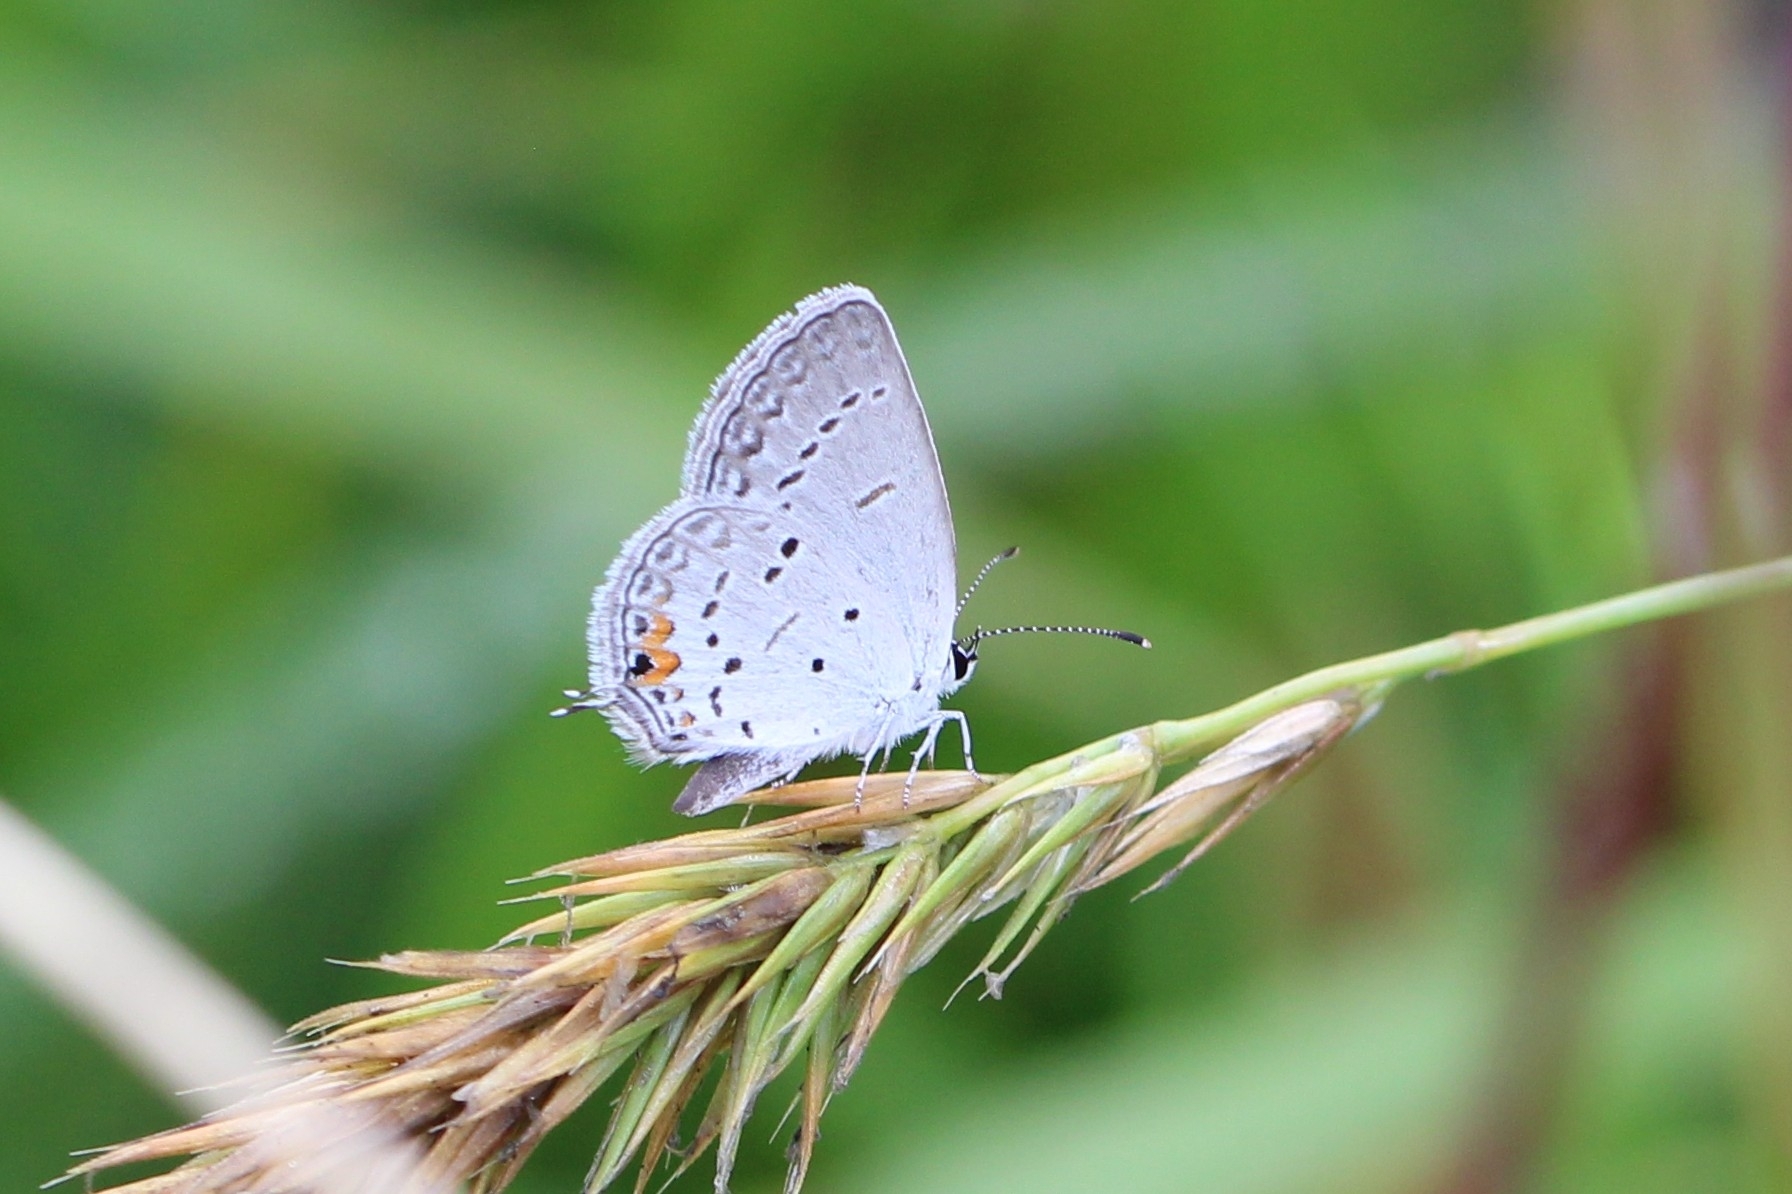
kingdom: Animalia
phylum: Arthropoda
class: Insecta
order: Lepidoptera
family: Lycaenidae
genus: Elkalyce
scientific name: Elkalyce comyntas
